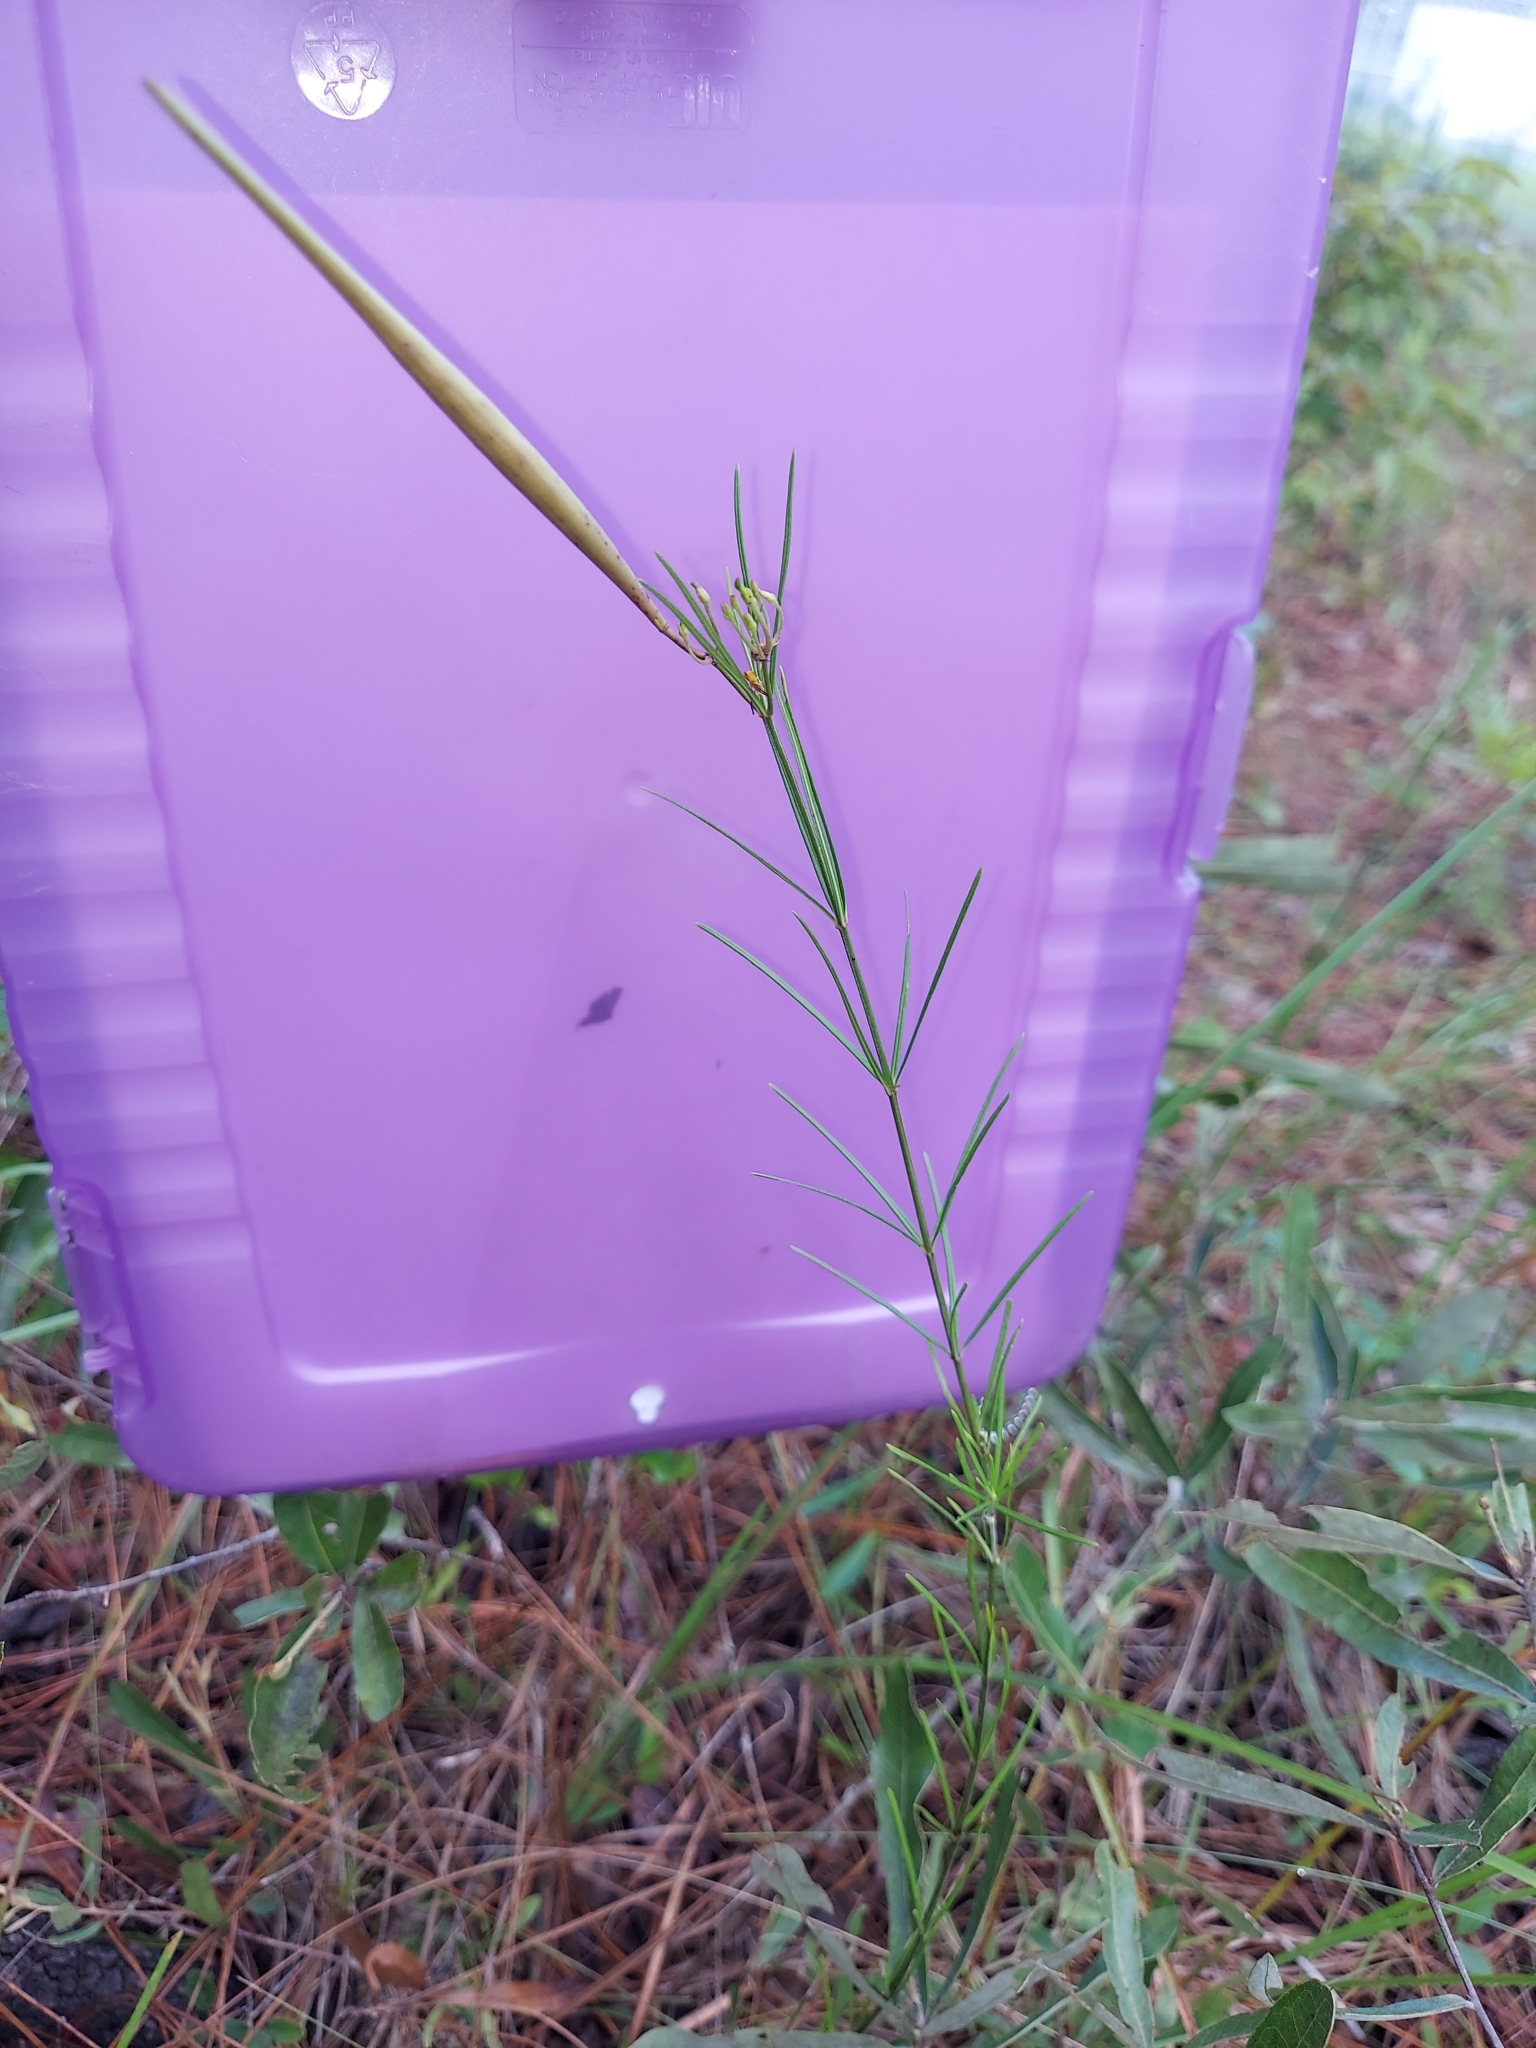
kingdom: Plantae
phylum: Tracheophyta
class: Magnoliopsida
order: Gentianales
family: Apocynaceae
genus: Asclepias
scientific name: Asclepias verticillata
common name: Eastern whorled milkweed
